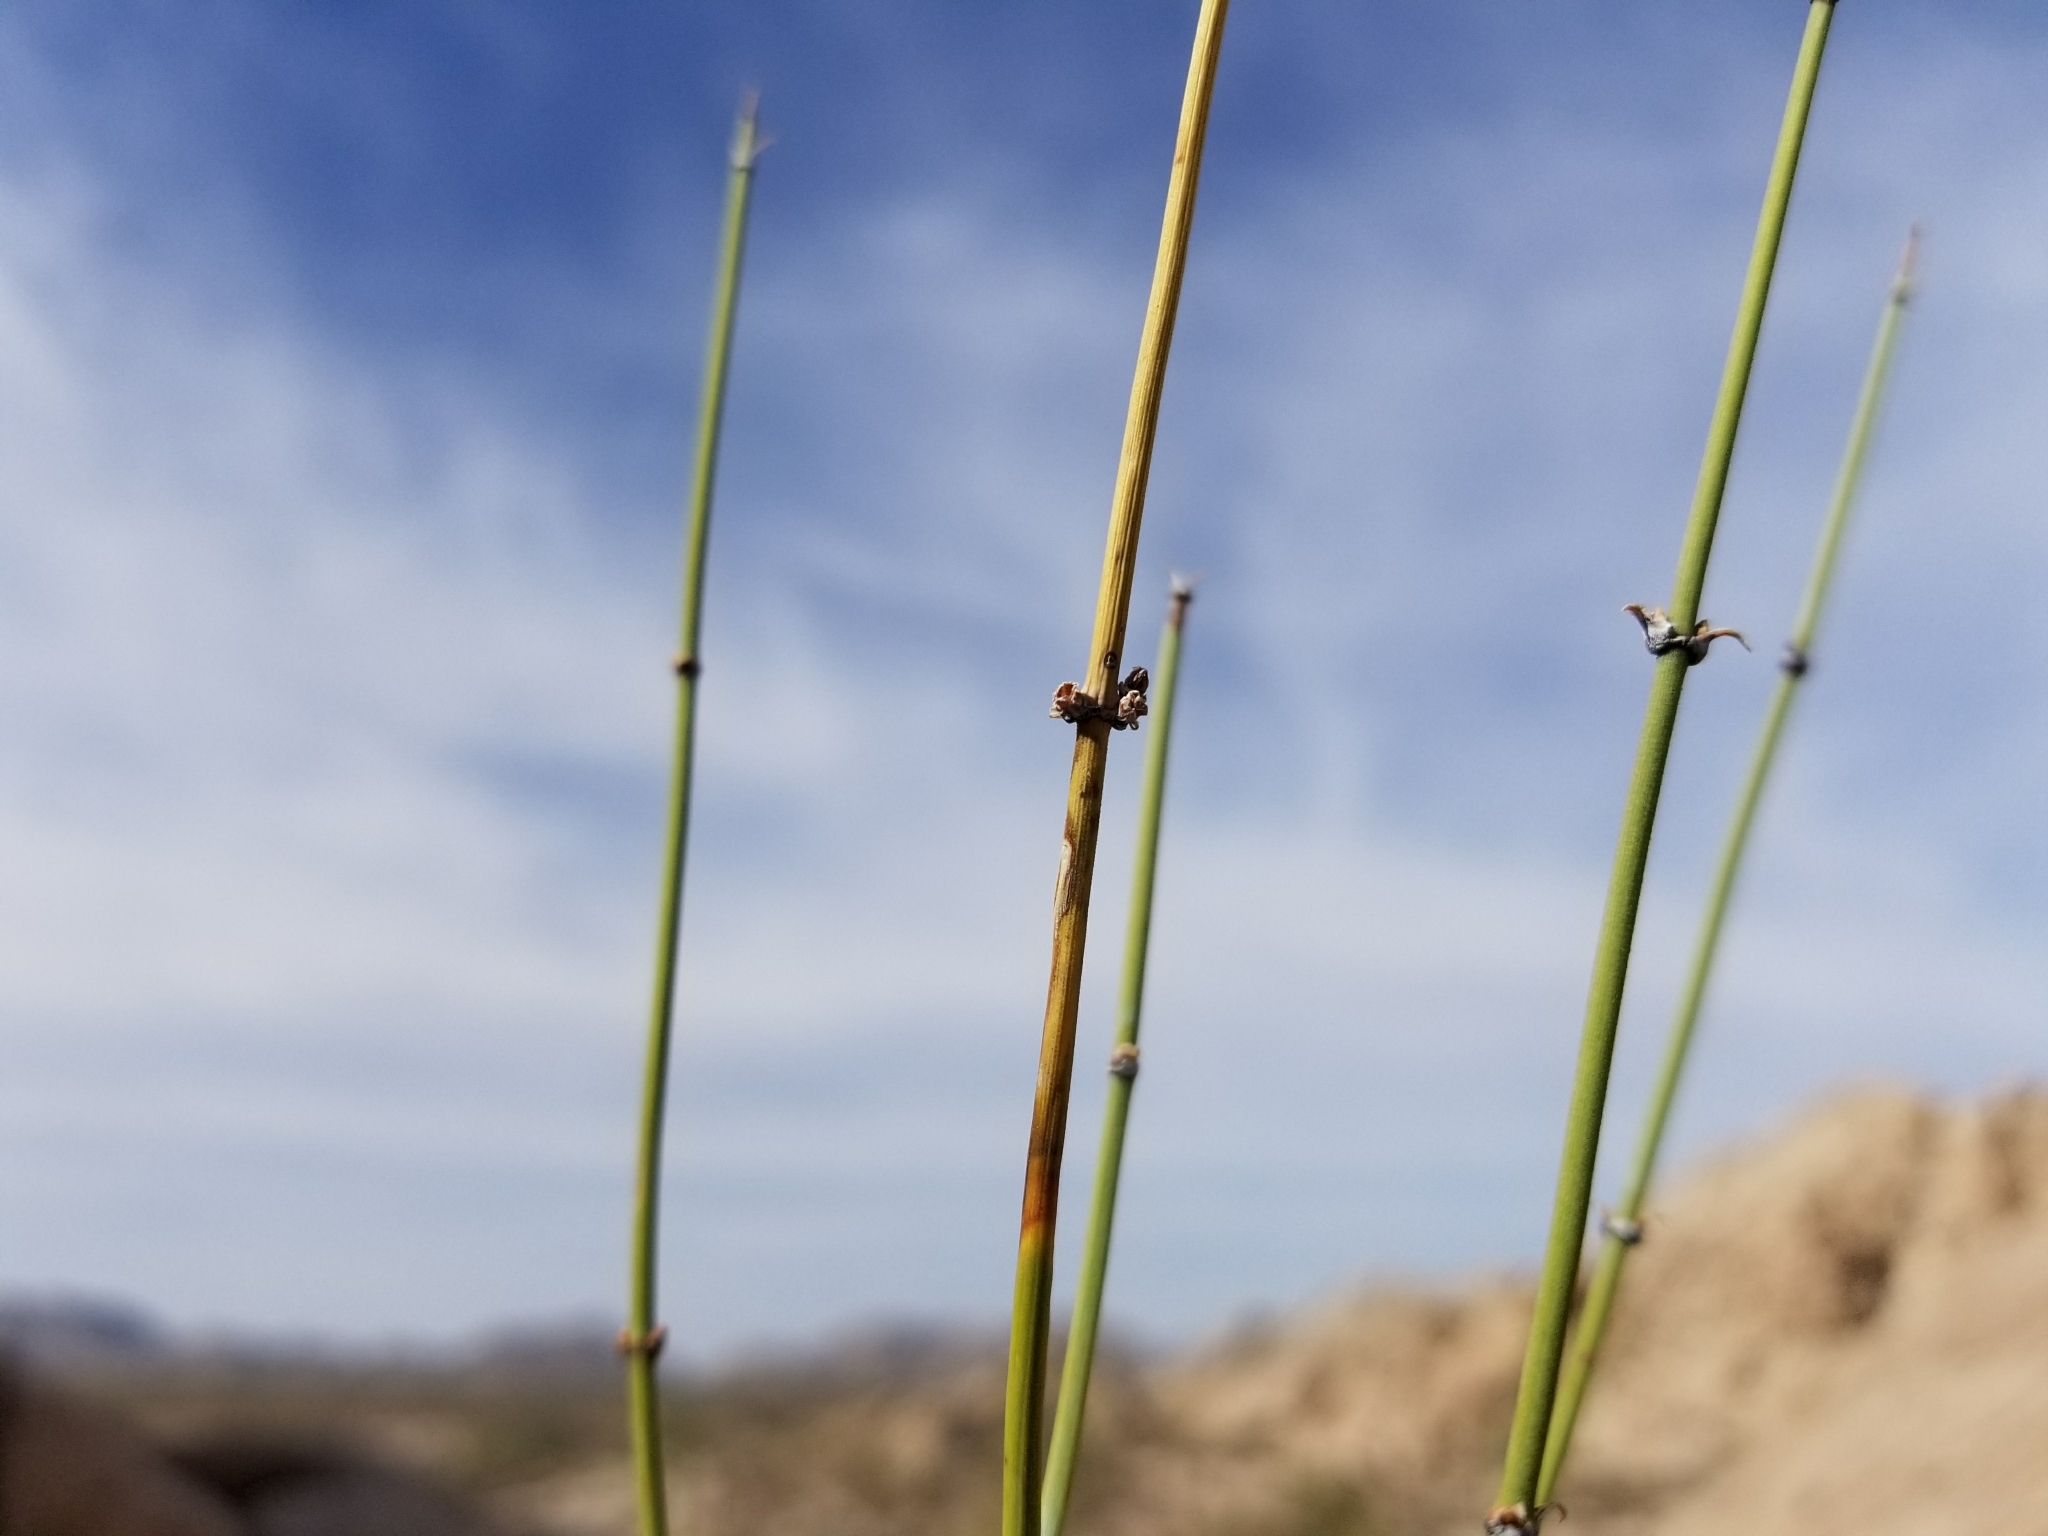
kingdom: Plantae
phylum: Tracheophyta
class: Gnetopsida
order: Ephedrales
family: Ephedraceae
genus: Ephedra
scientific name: Ephedra aspera
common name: Boundary ephedra
